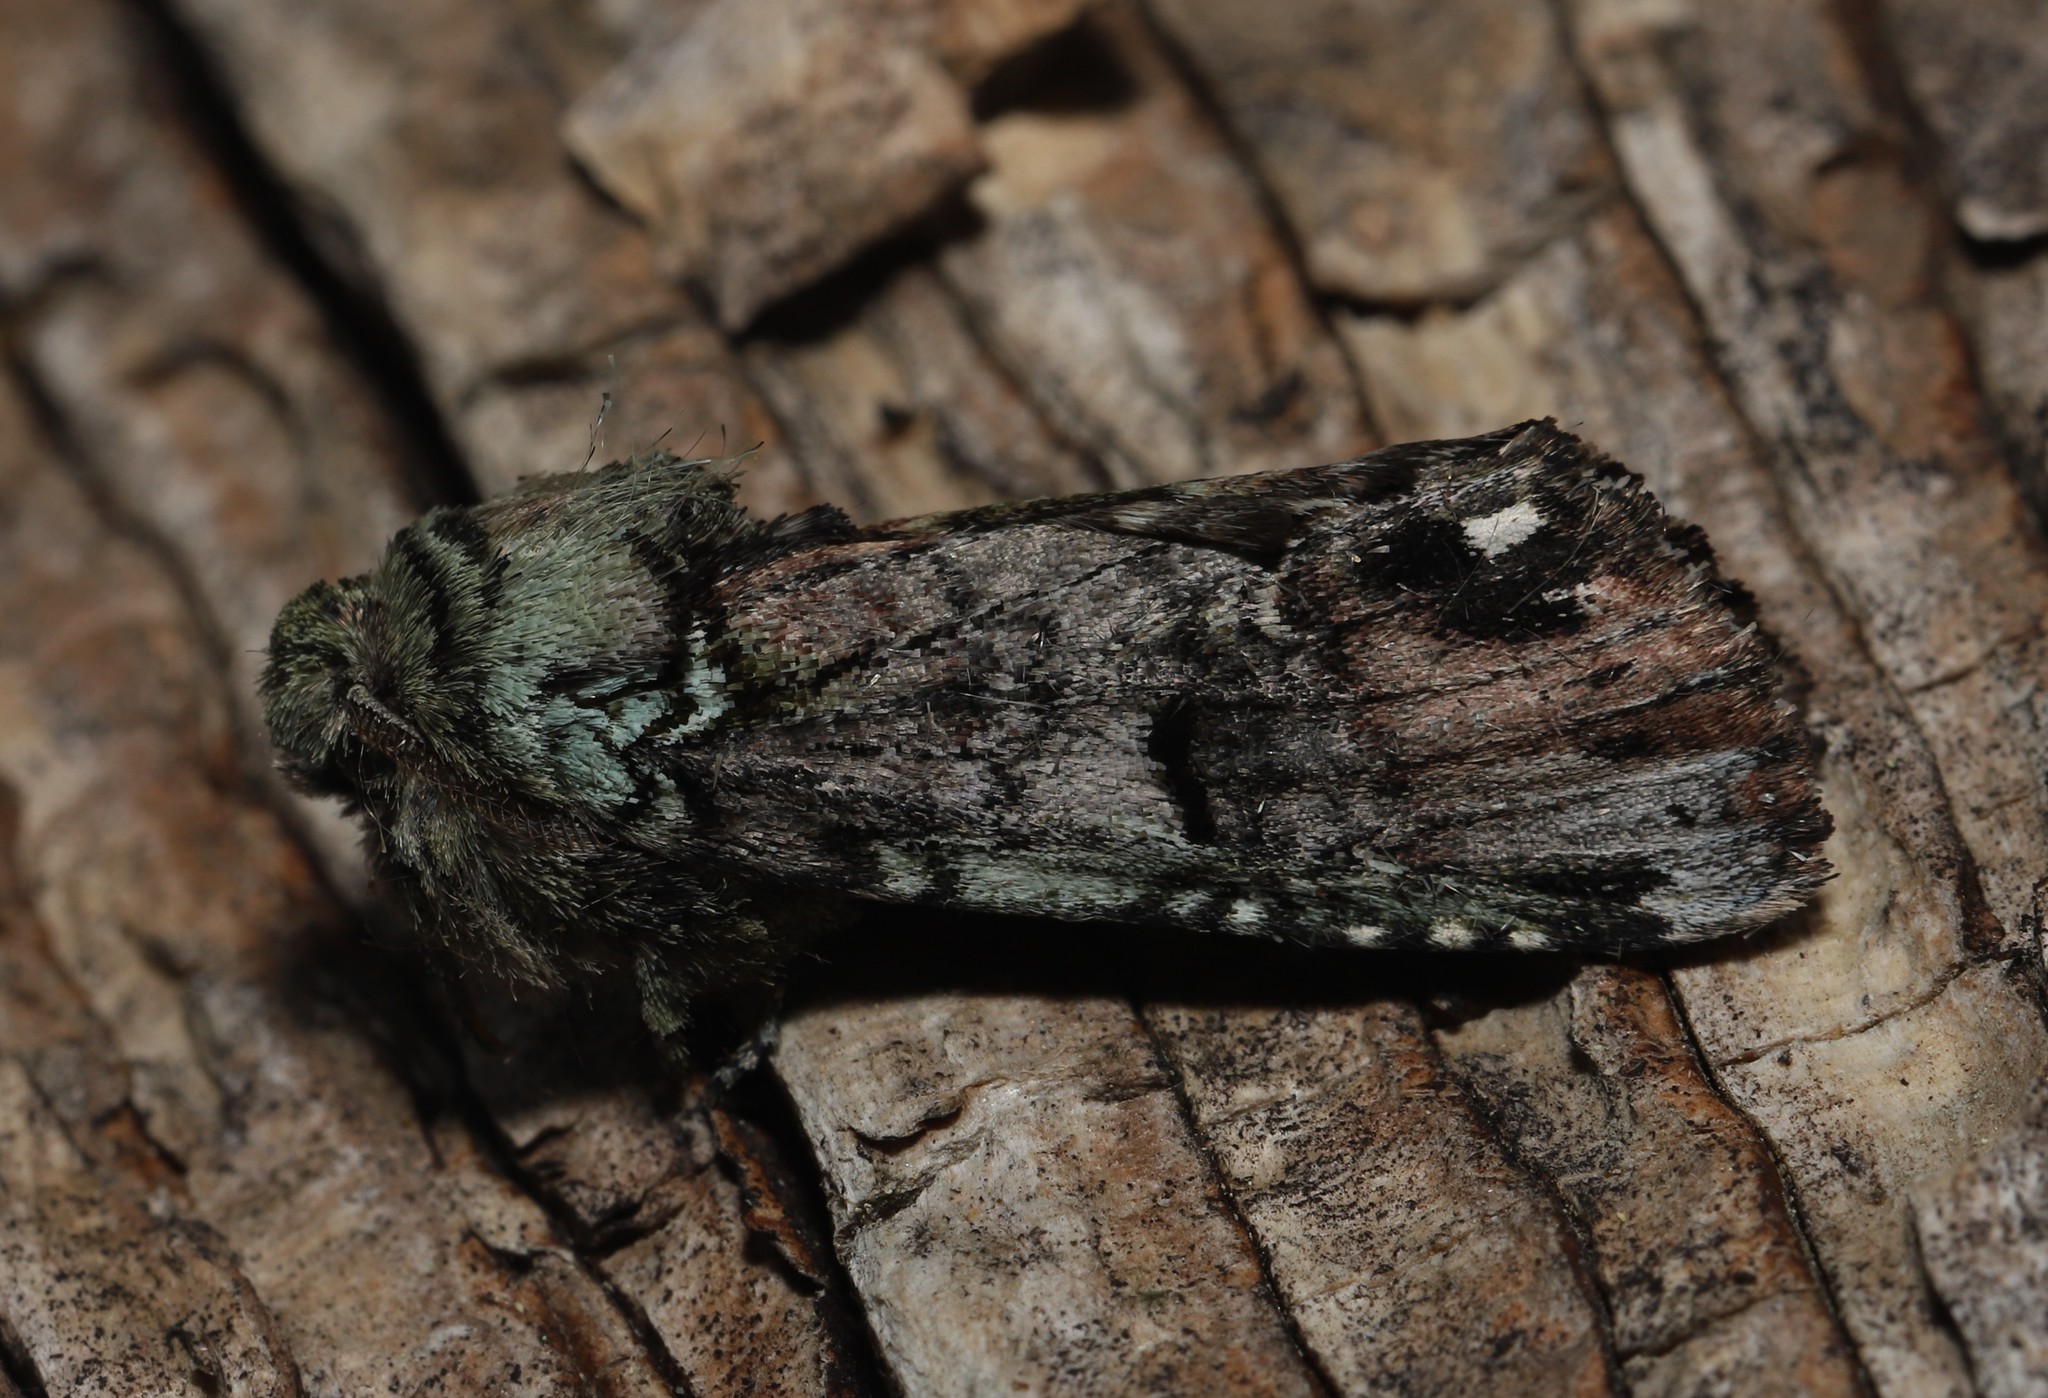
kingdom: Animalia
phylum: Arthropoda
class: Insecta
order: Lepidoptera
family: Notodontidae
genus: Schizura
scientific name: Schizura
